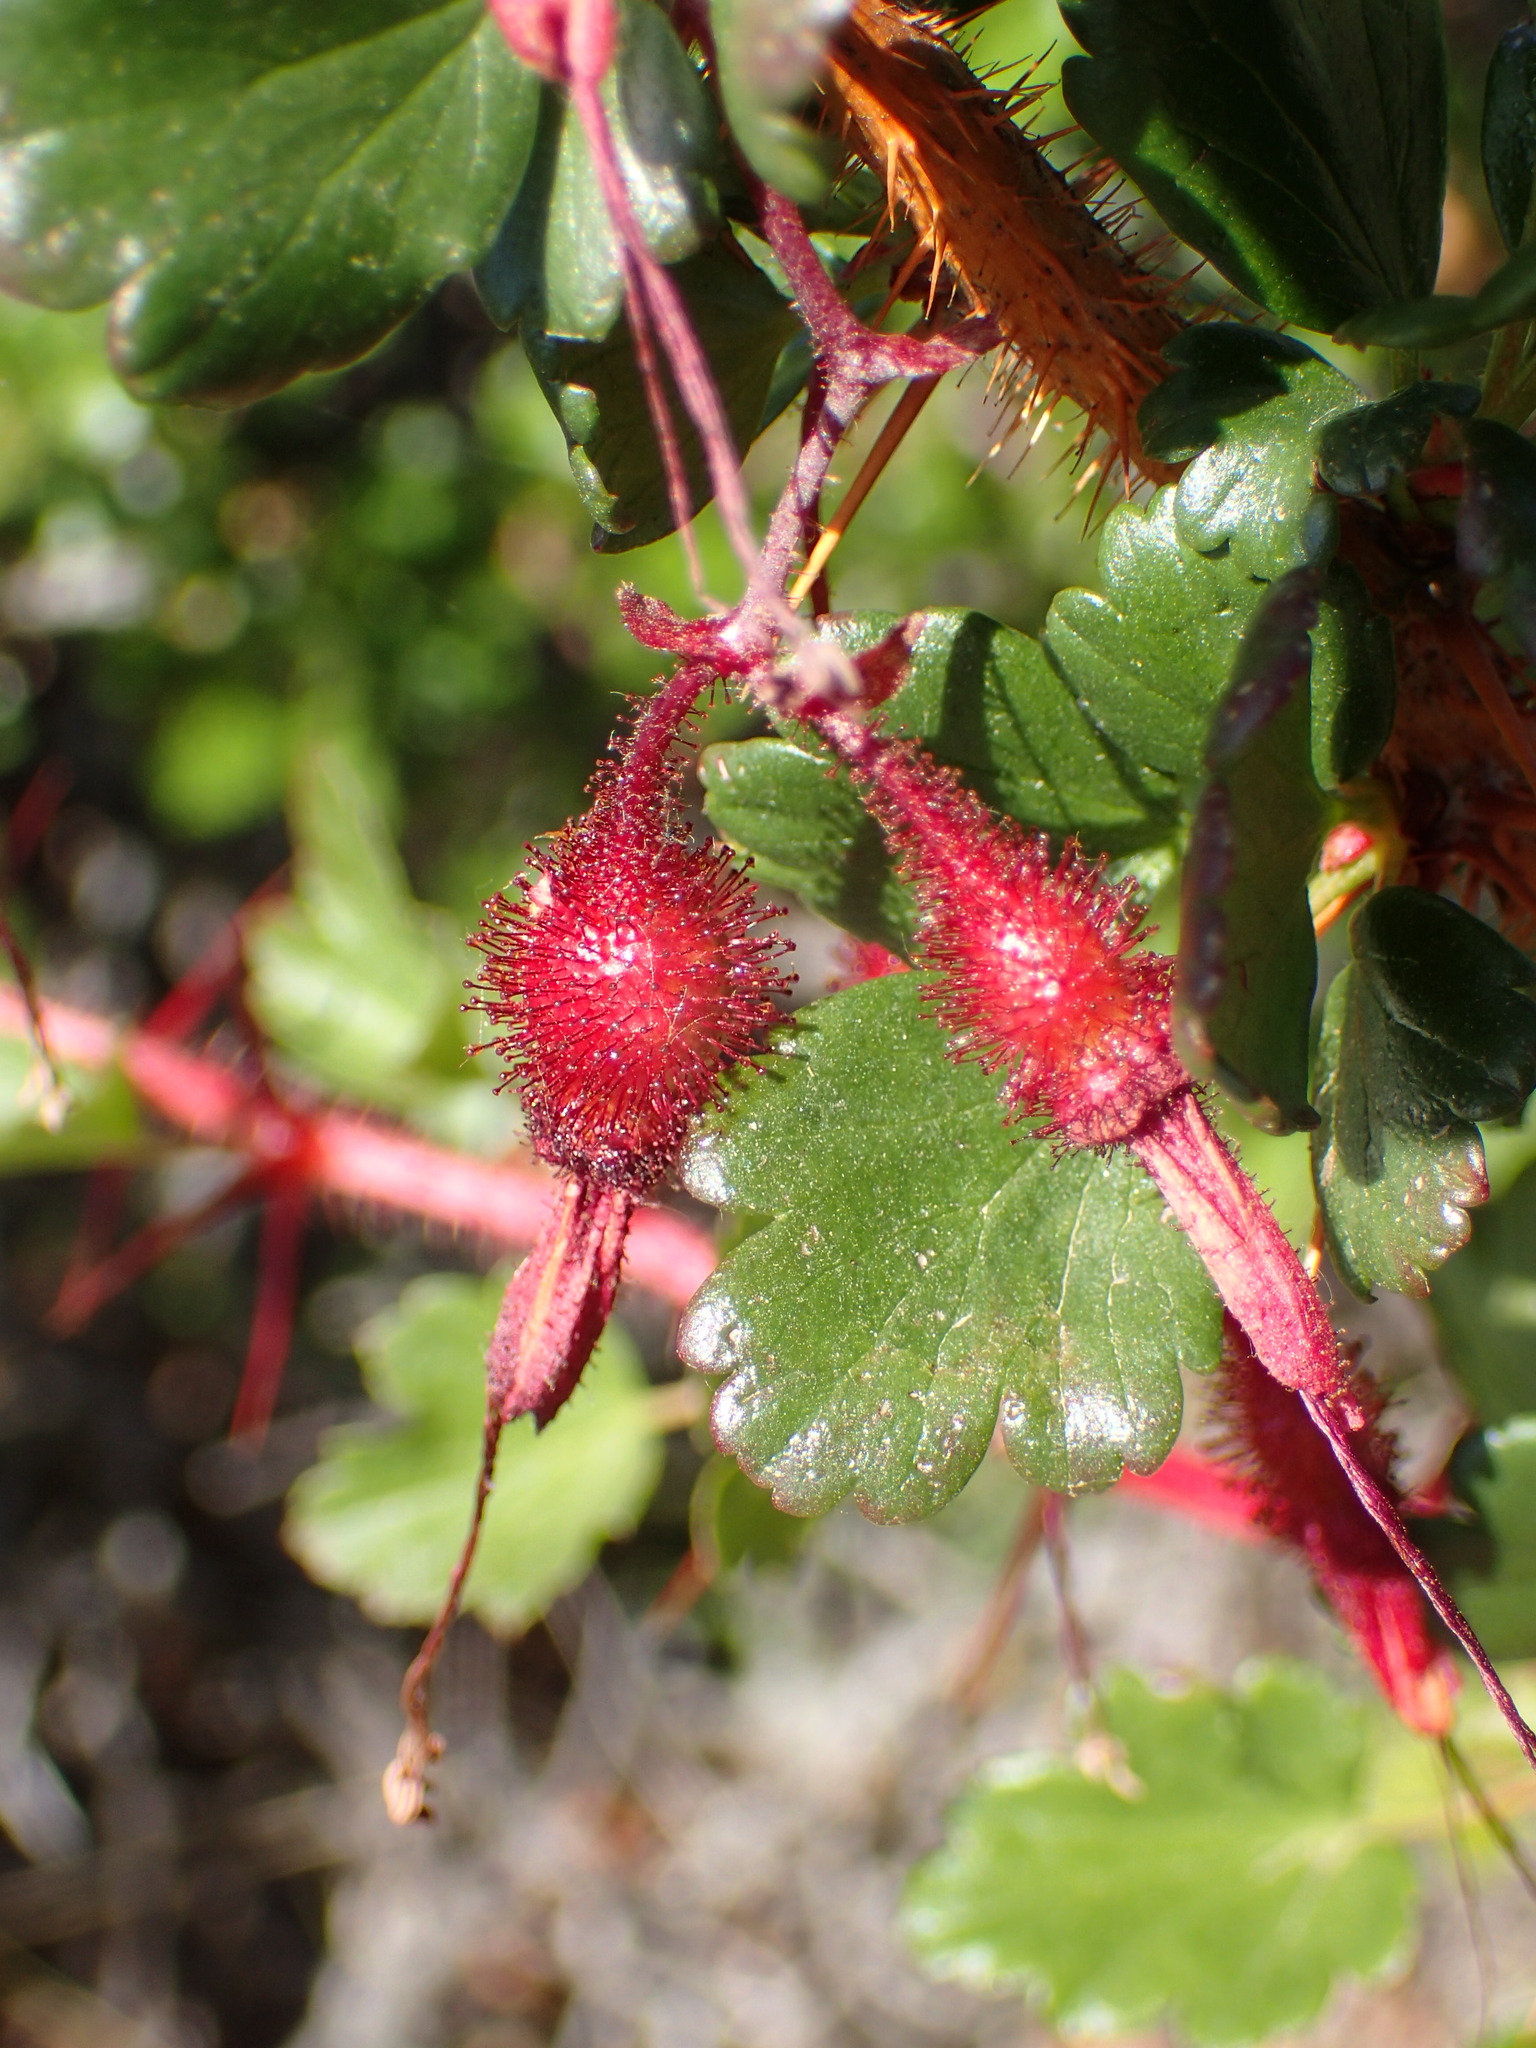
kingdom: Plantae
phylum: Tracheophyta
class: Magnoliopsida
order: Saxifragales
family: Grossulariaceae
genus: Ribes
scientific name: Ribes speciosum
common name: Fuchsia-flower gooseberry
